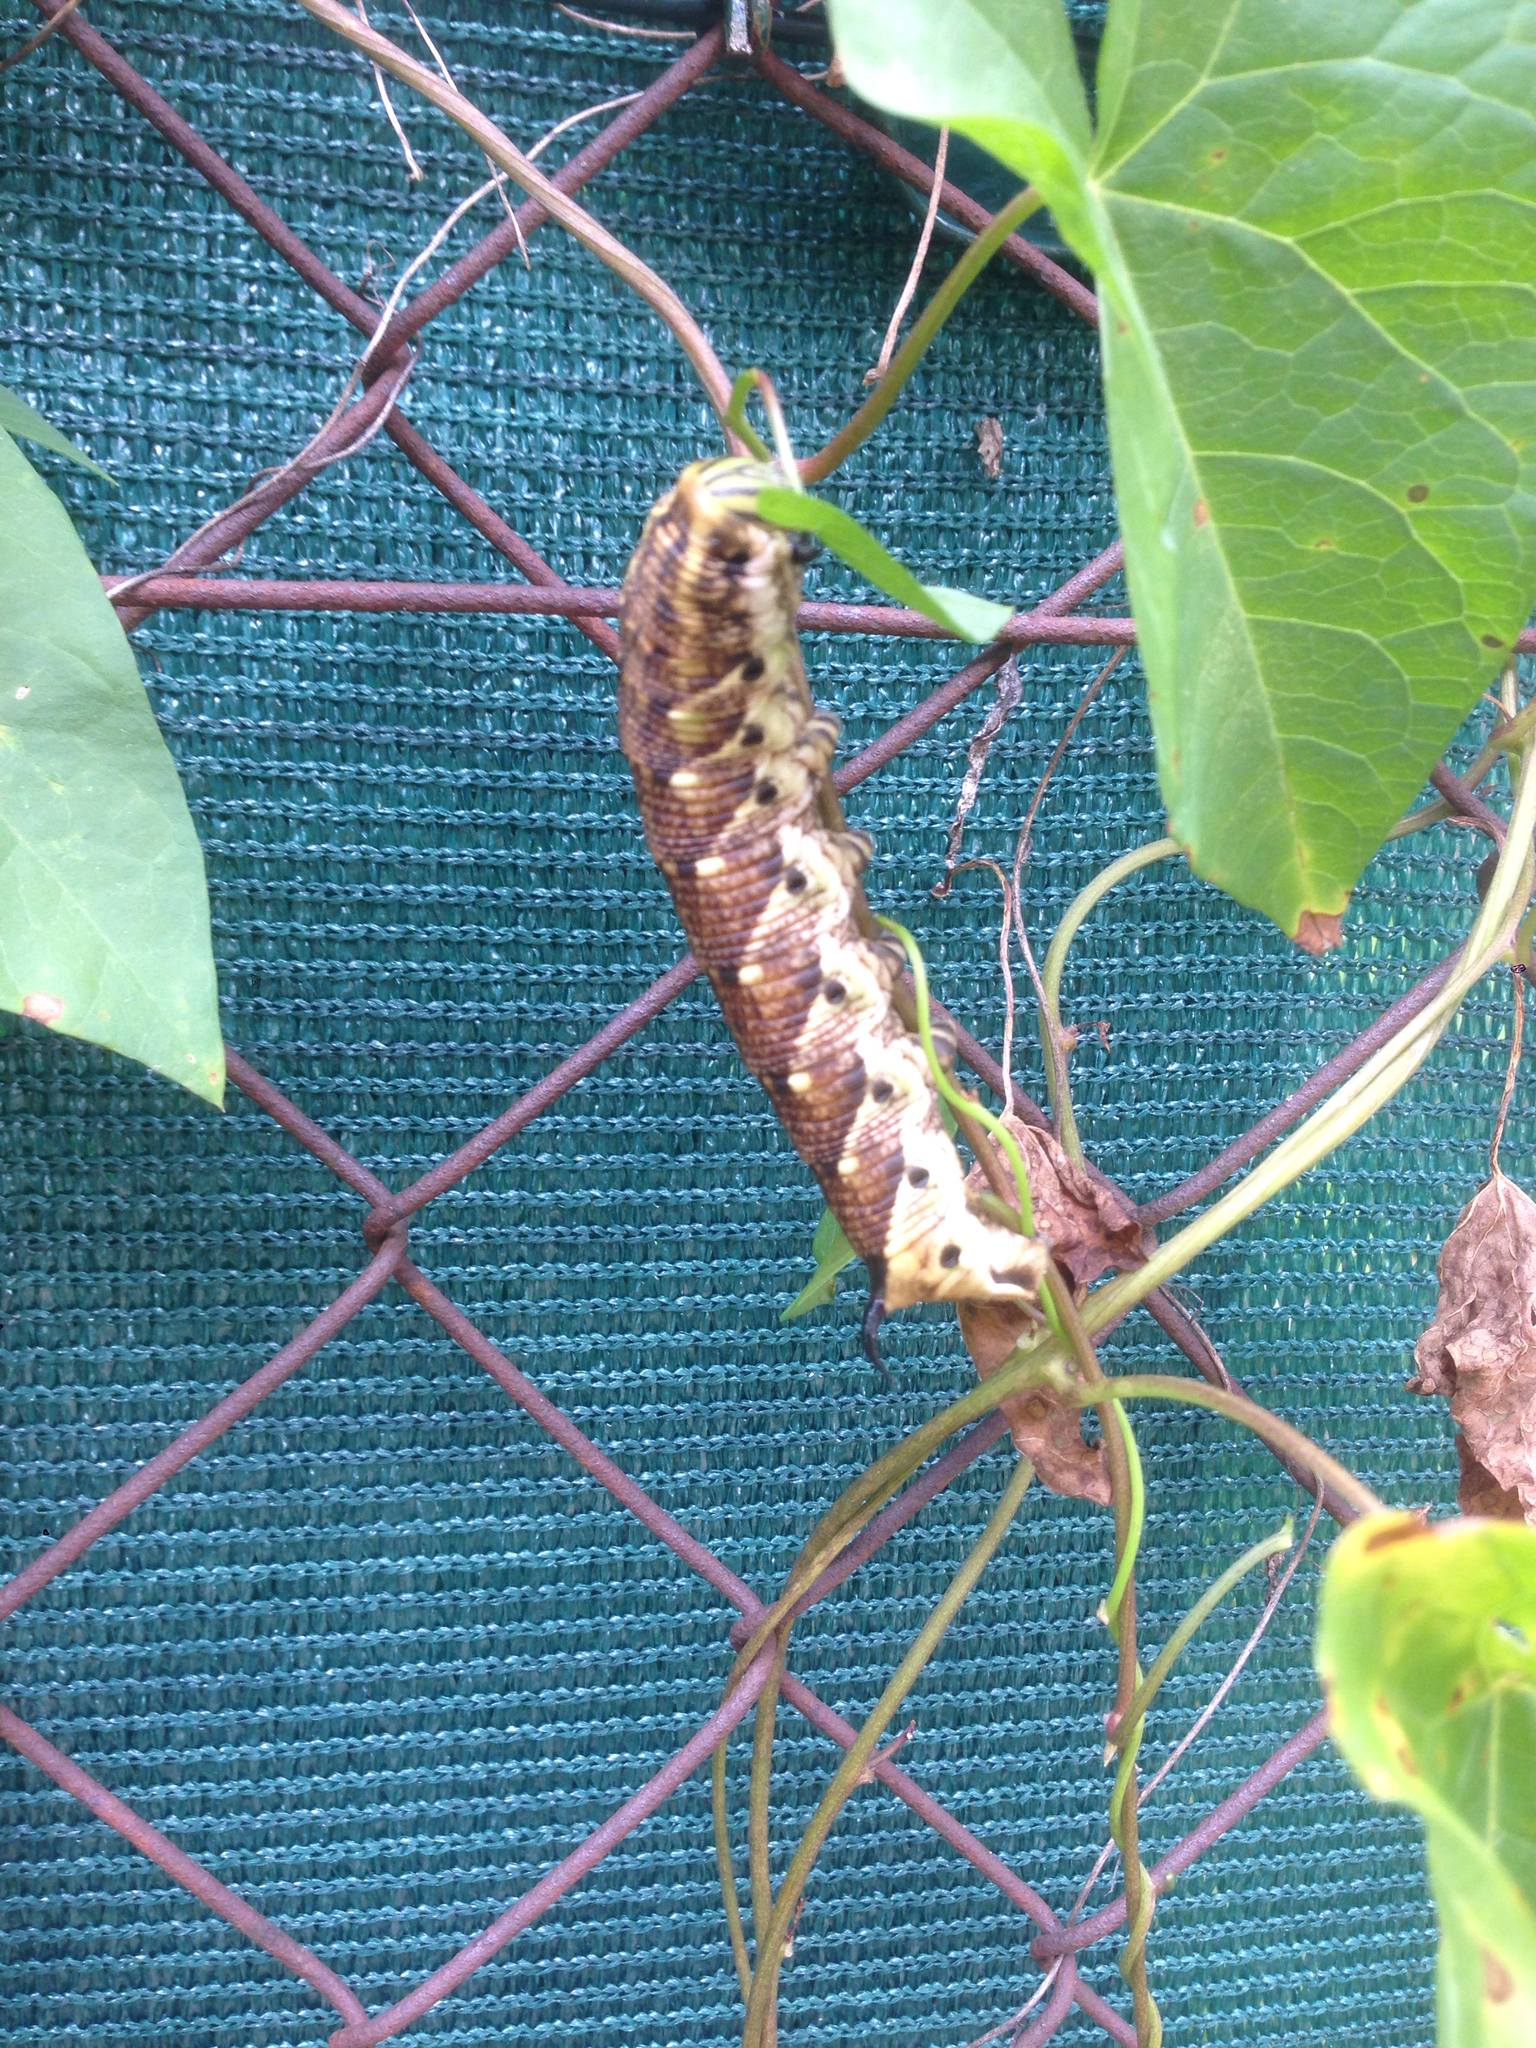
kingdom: Animalia
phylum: Arthropoda
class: Insecta
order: Lepidoptera
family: Sphingidae
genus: Agrius
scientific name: Agrius convolvuli
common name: Convolvulus hawkmoth
